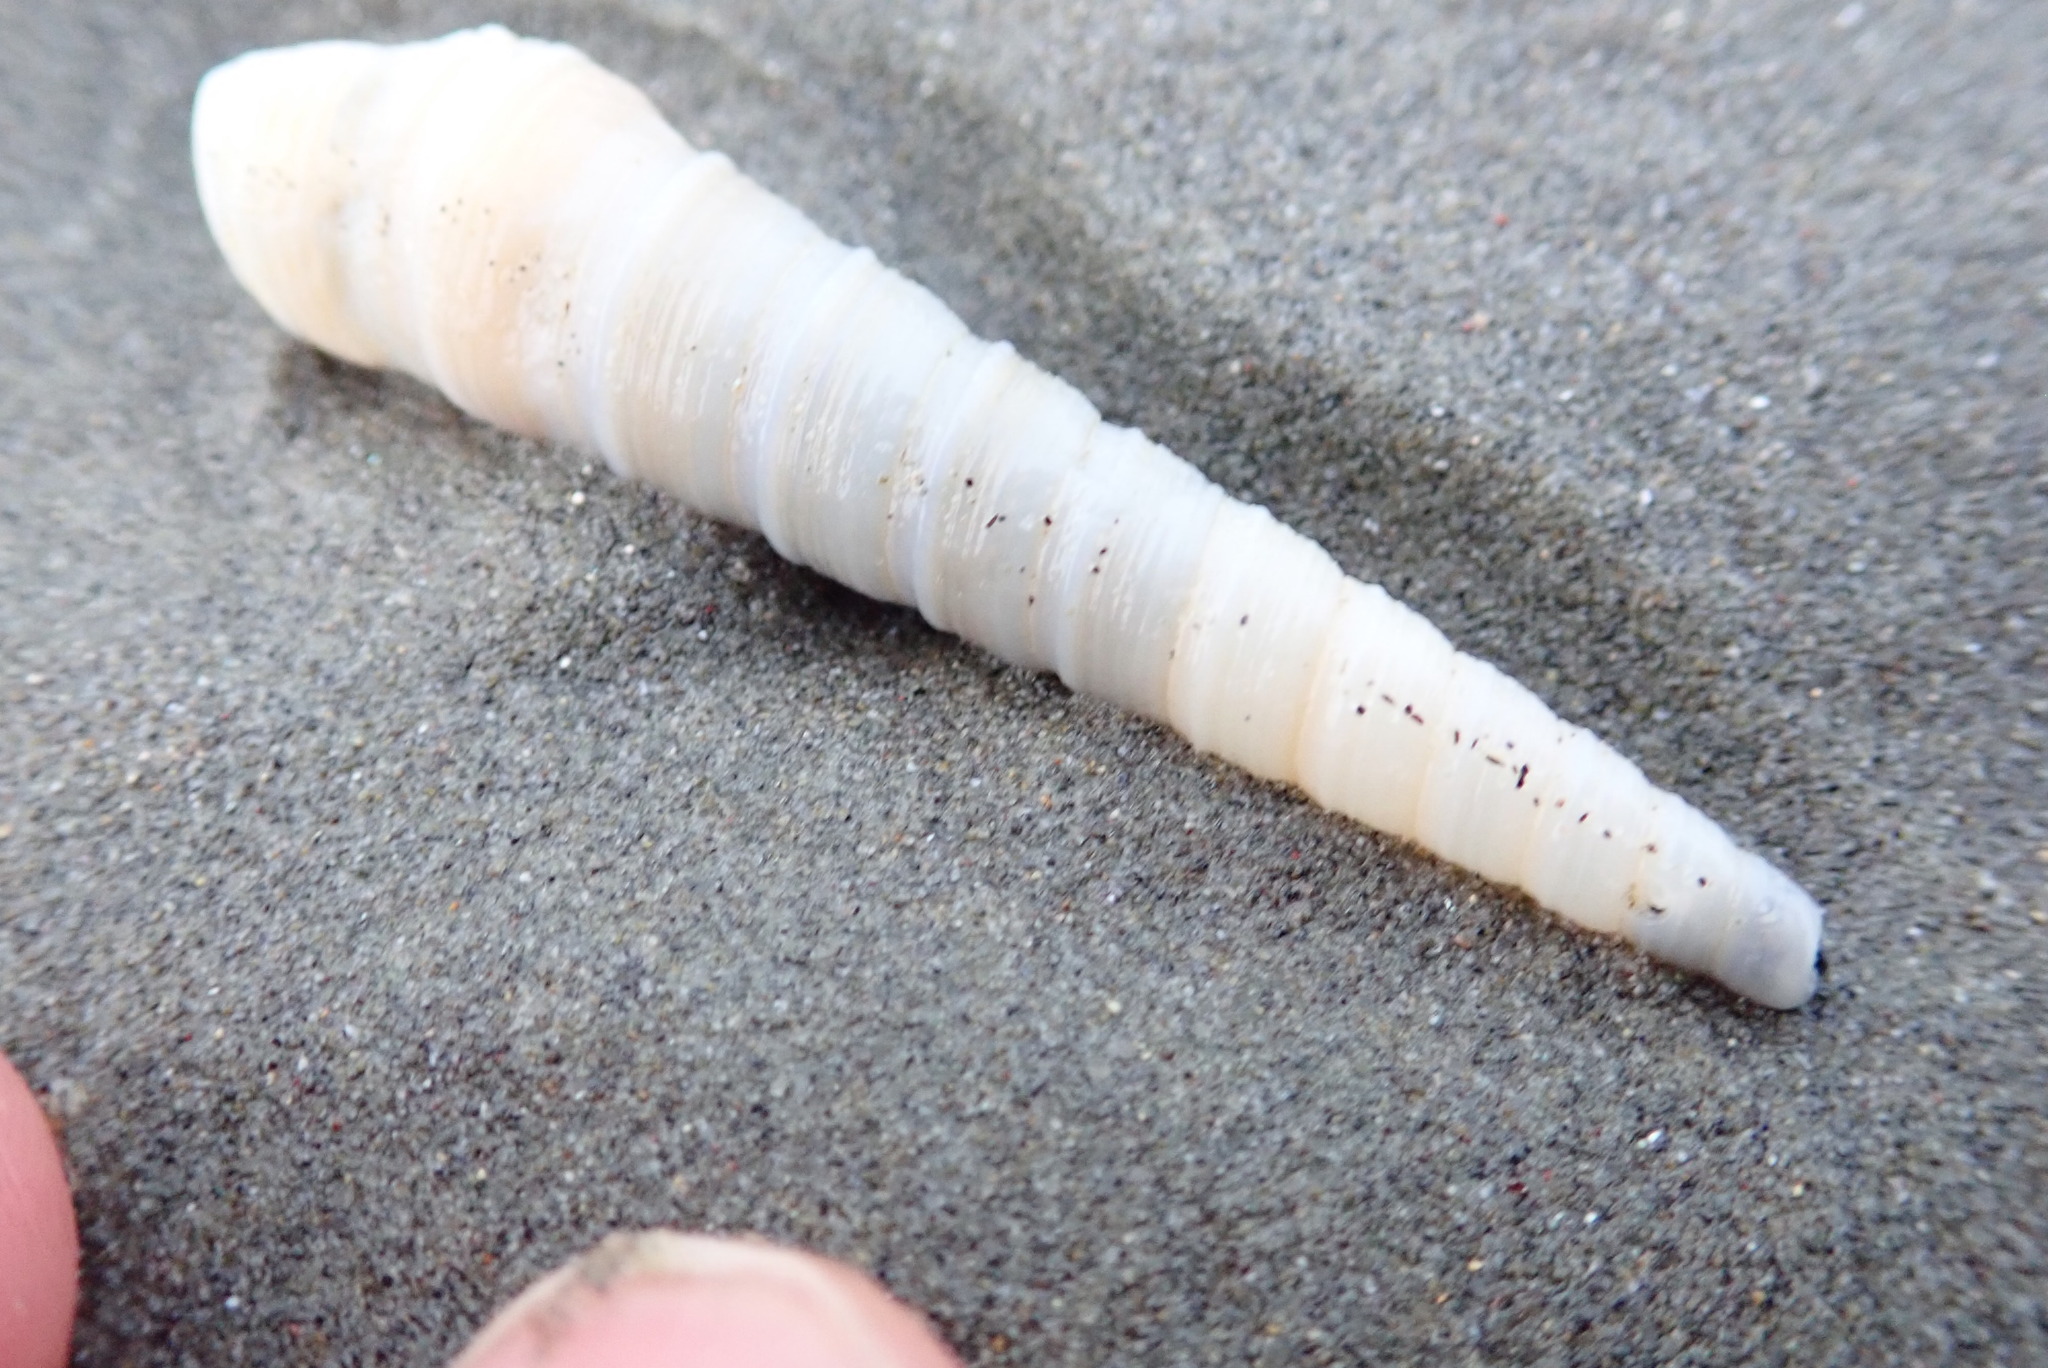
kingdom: Animalia
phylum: Mollusca
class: Gastropoda
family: Turritellidae
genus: Stiracolpus
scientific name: Stiracolpus pagoda
